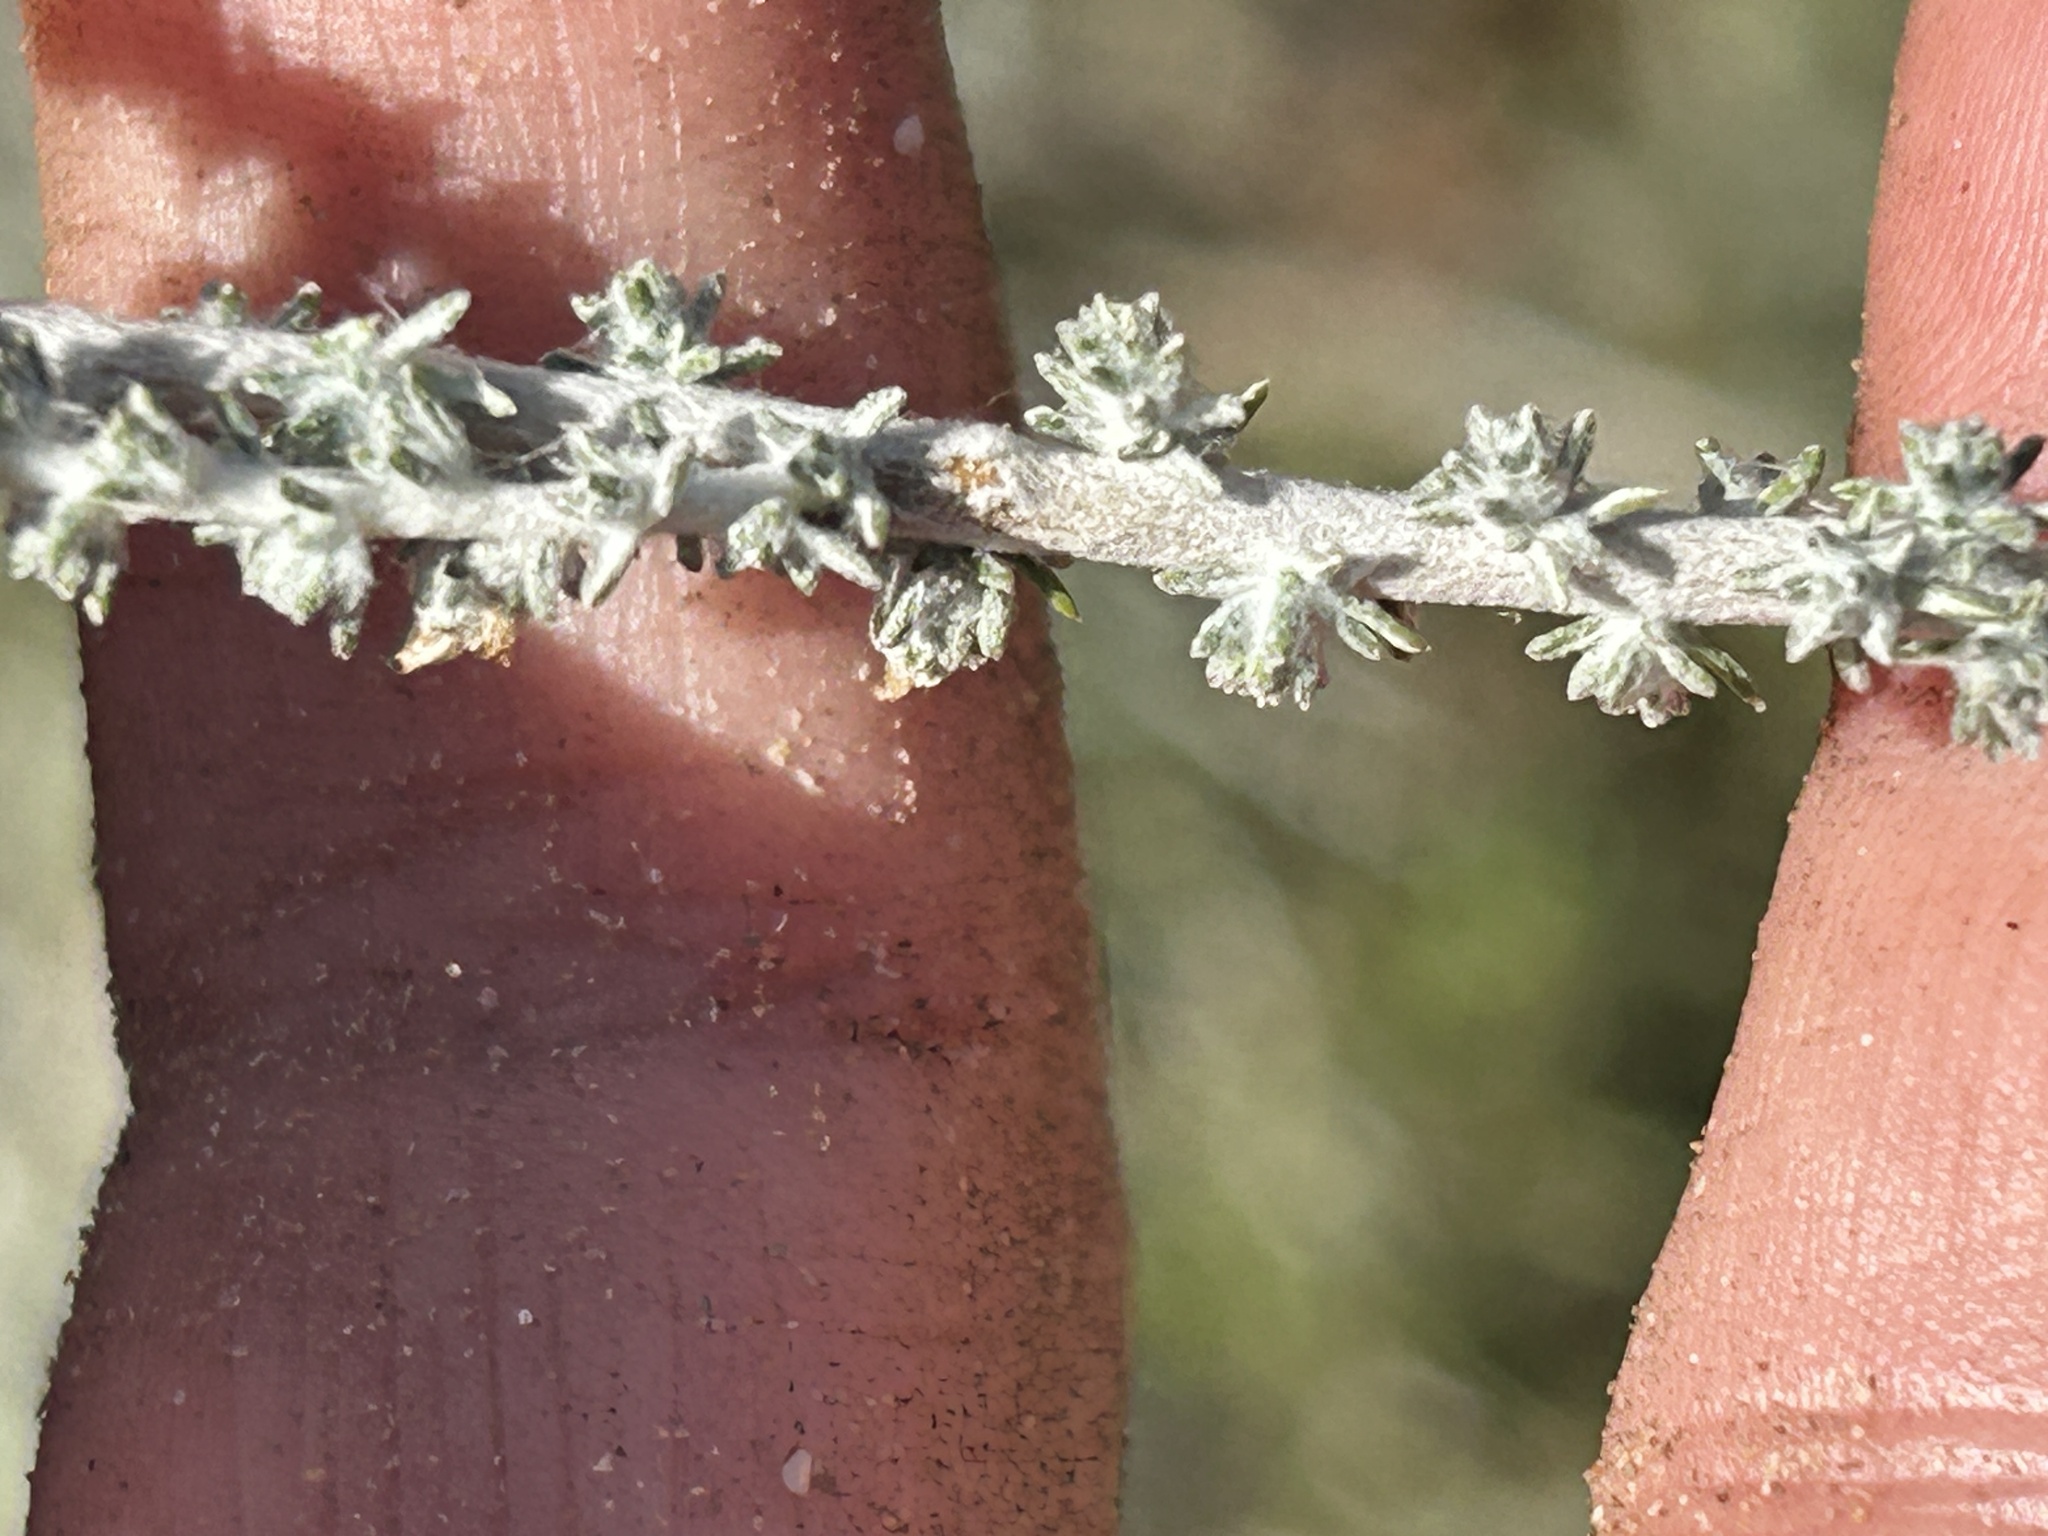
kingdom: Plantae
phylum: Tracheophyta
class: Magnoliopsida
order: Asterales
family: Asteraceae
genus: Ifloga
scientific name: Ifloga ambigua
